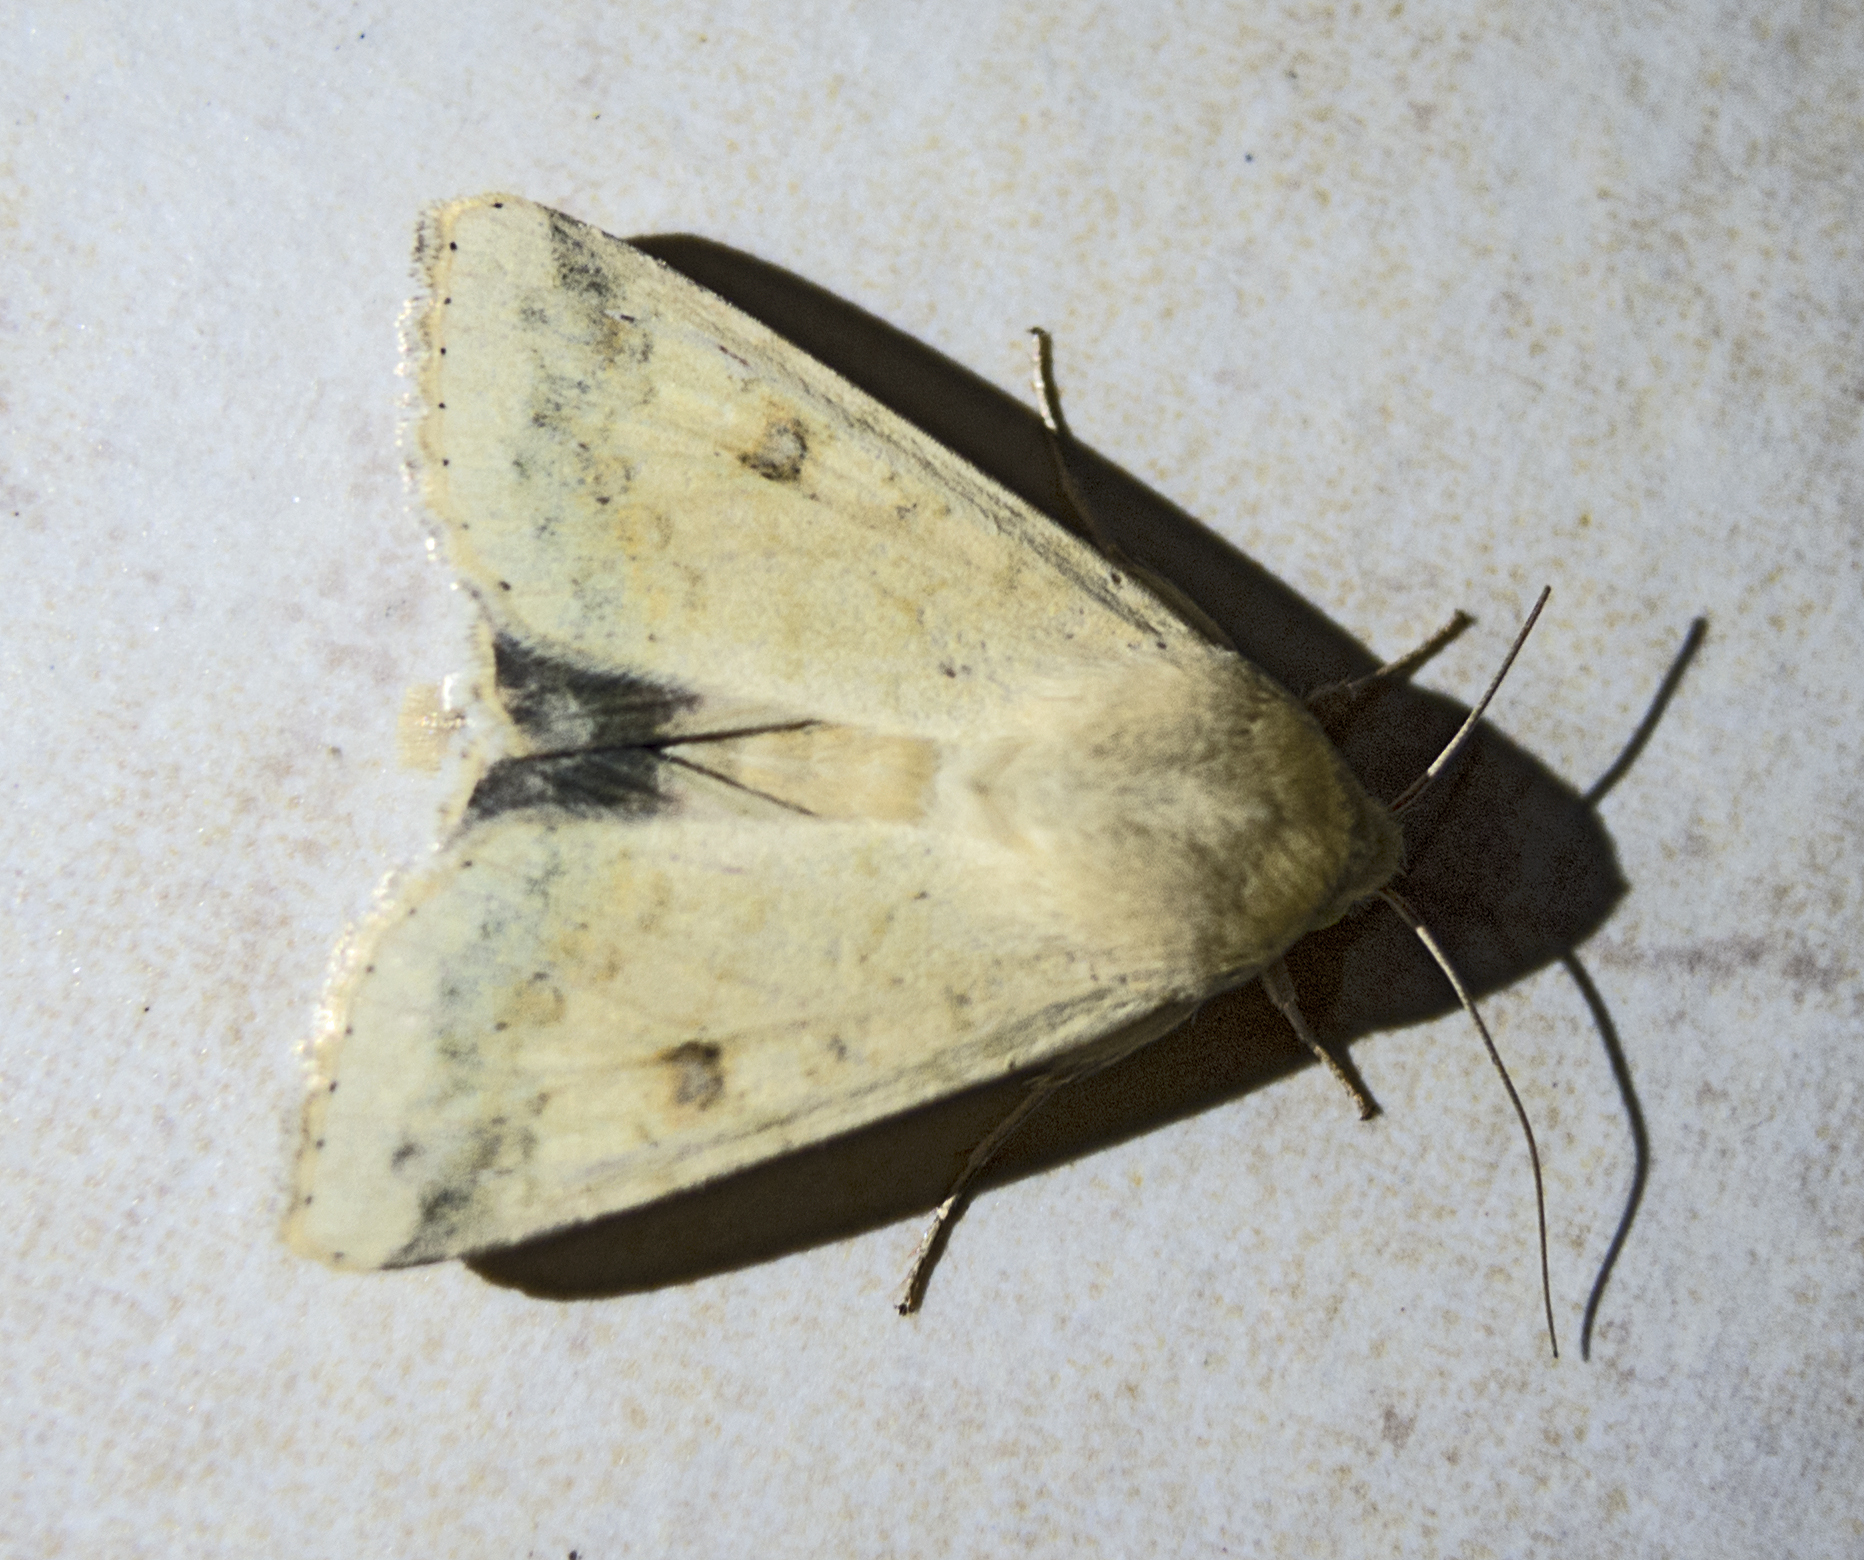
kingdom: Animalia
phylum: Arthropoda
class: Insecta
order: Lepidoptera
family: Noctuidae
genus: Helicoverpa
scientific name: Helicoverpa armigera
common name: Cotton bollworm
